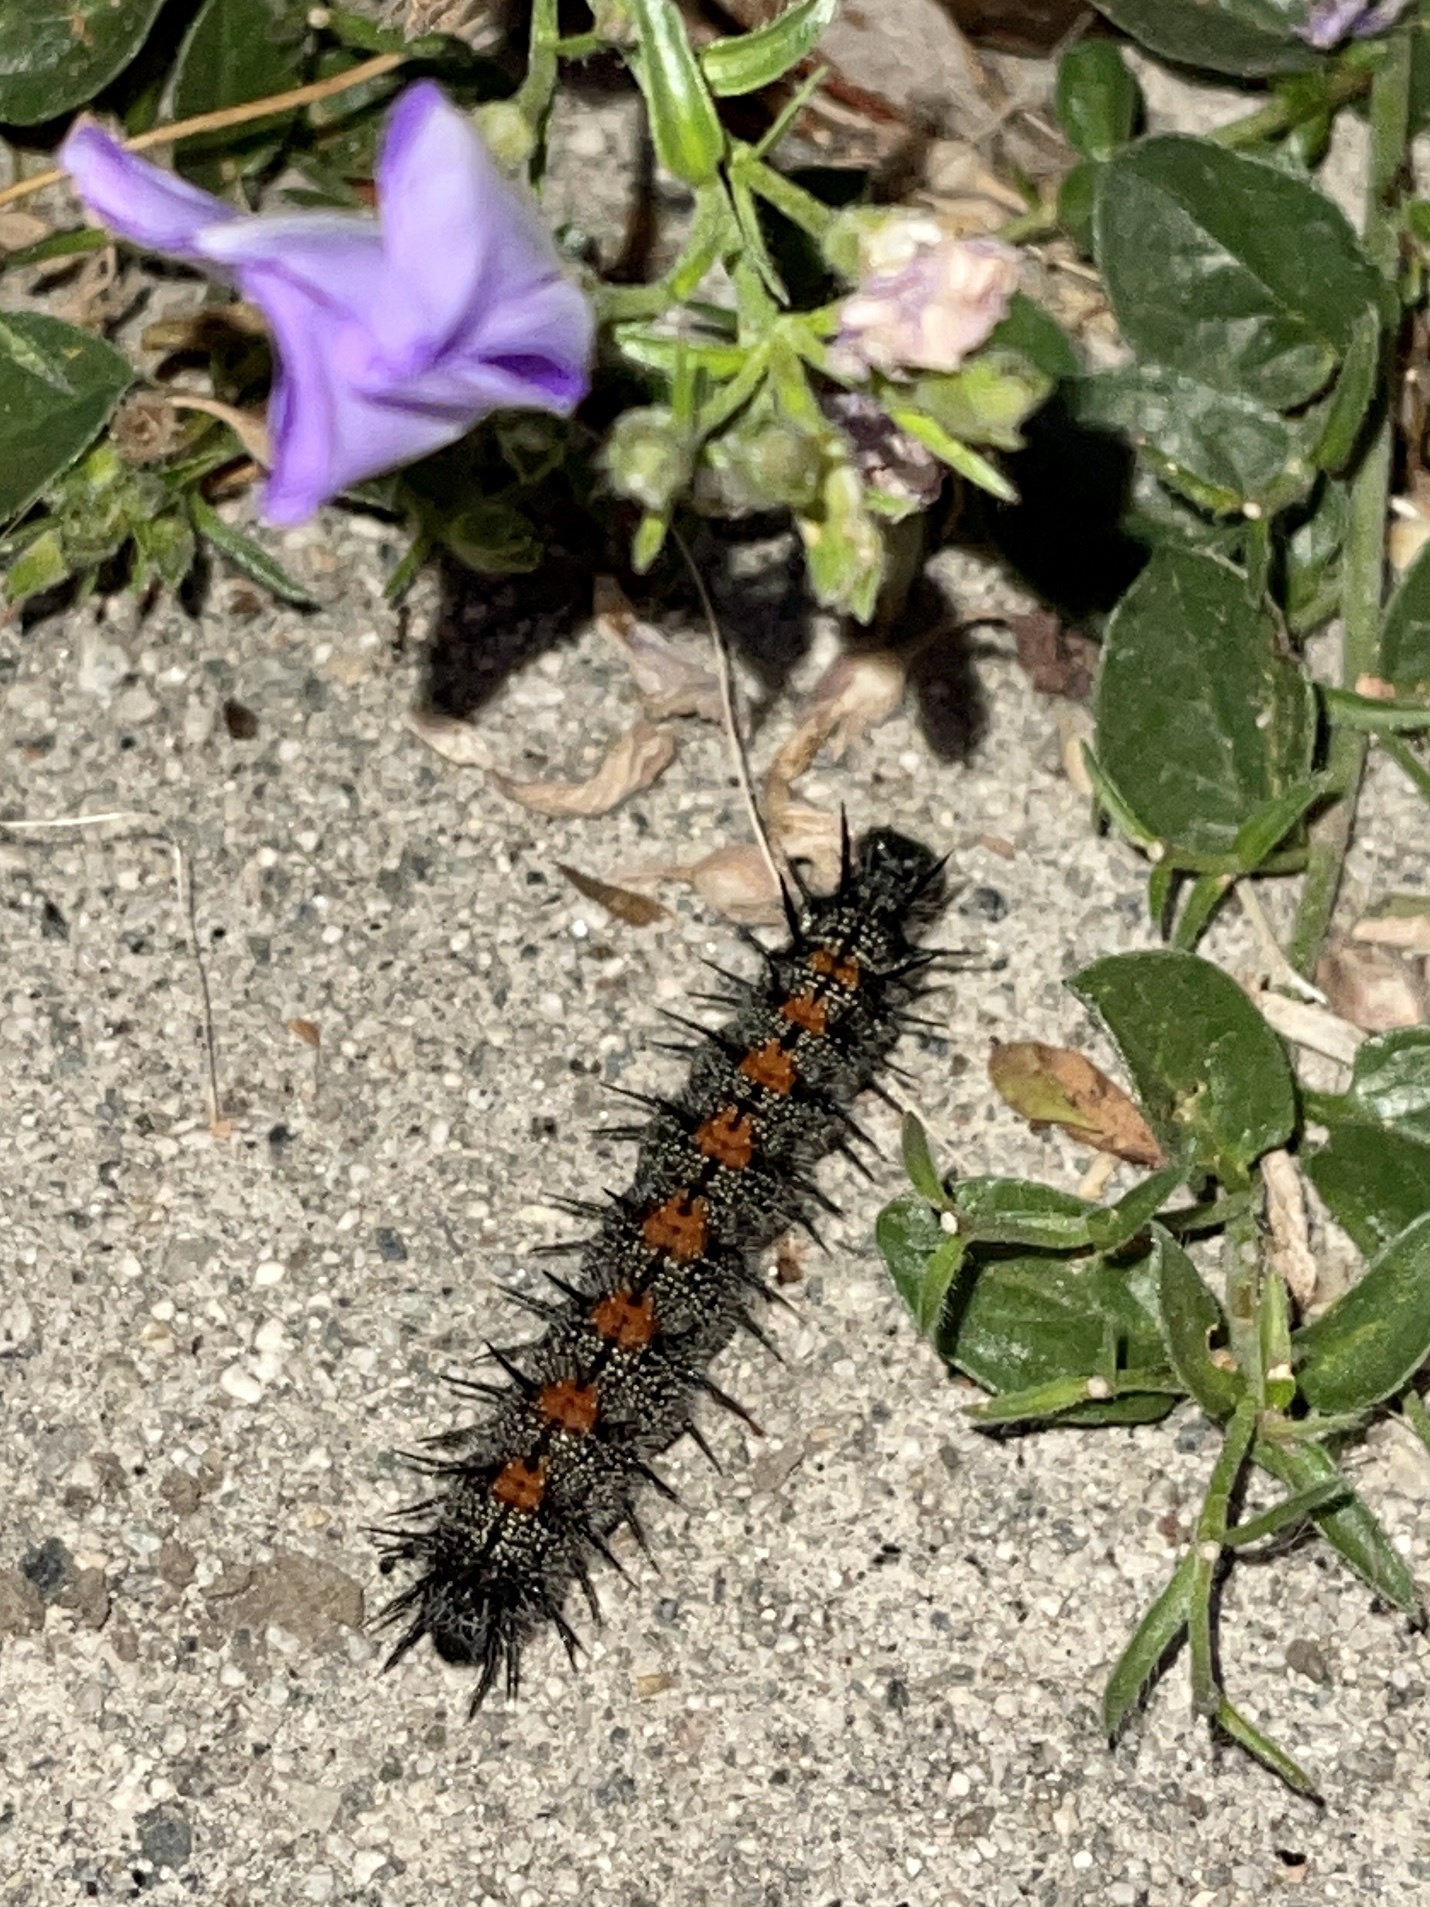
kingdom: Animalia
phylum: Arthropoda
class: Insecta
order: Lepidoptera
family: Nymphalidae
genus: Nymphalis
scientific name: Nymphalis antiopa
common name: Camberwell beauty
